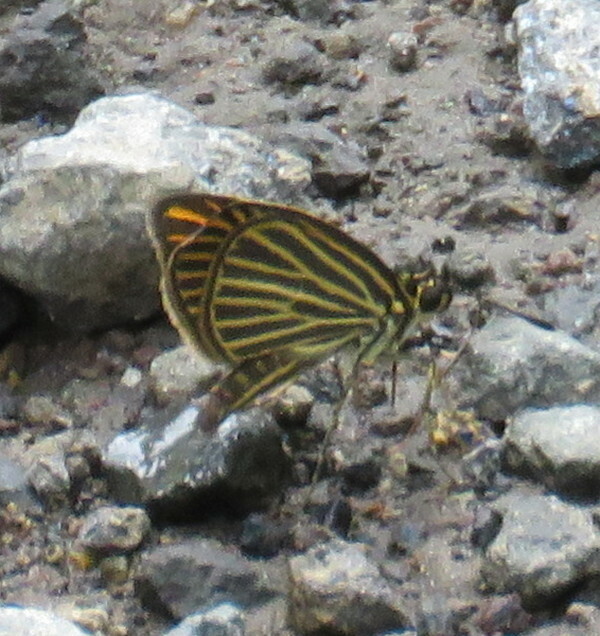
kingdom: Animalia
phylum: Arthropoda
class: Insecta
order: Lepidoptera
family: Hesperiidae
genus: Apaustus
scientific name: Apaustus gracilis
